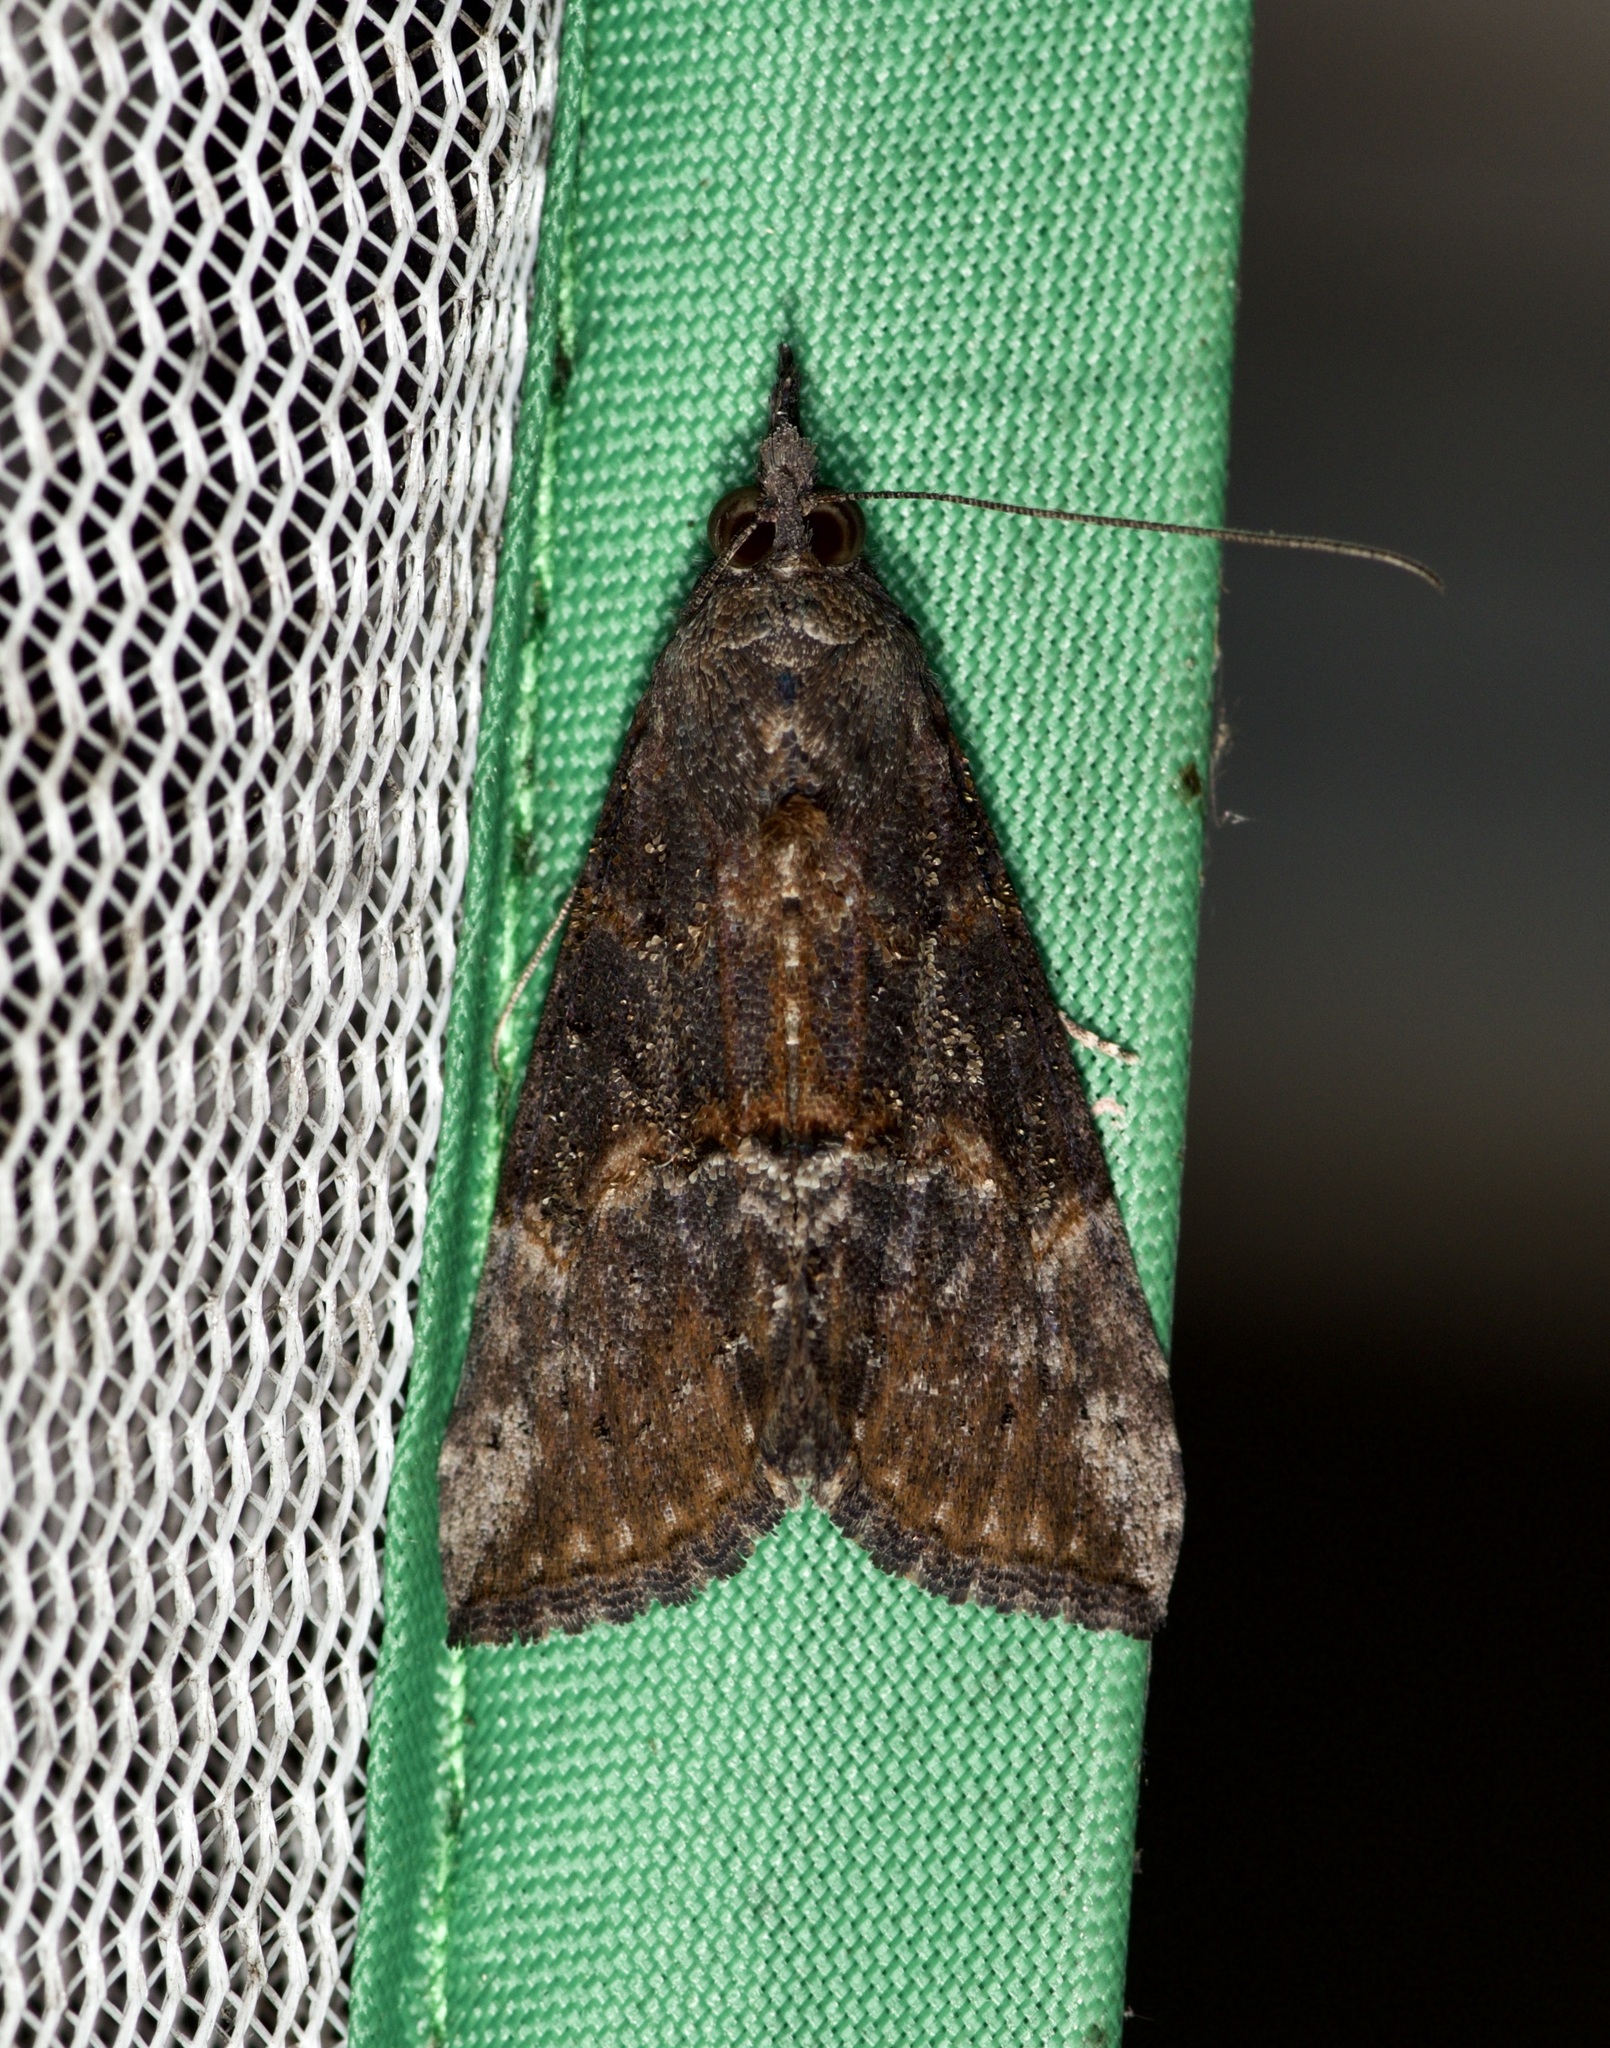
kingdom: Animalia
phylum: Arthropoda
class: Insecta
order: Lepidoptera
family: Erebidae
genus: Hypena
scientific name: Hypena scabra
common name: Green cloverworm
